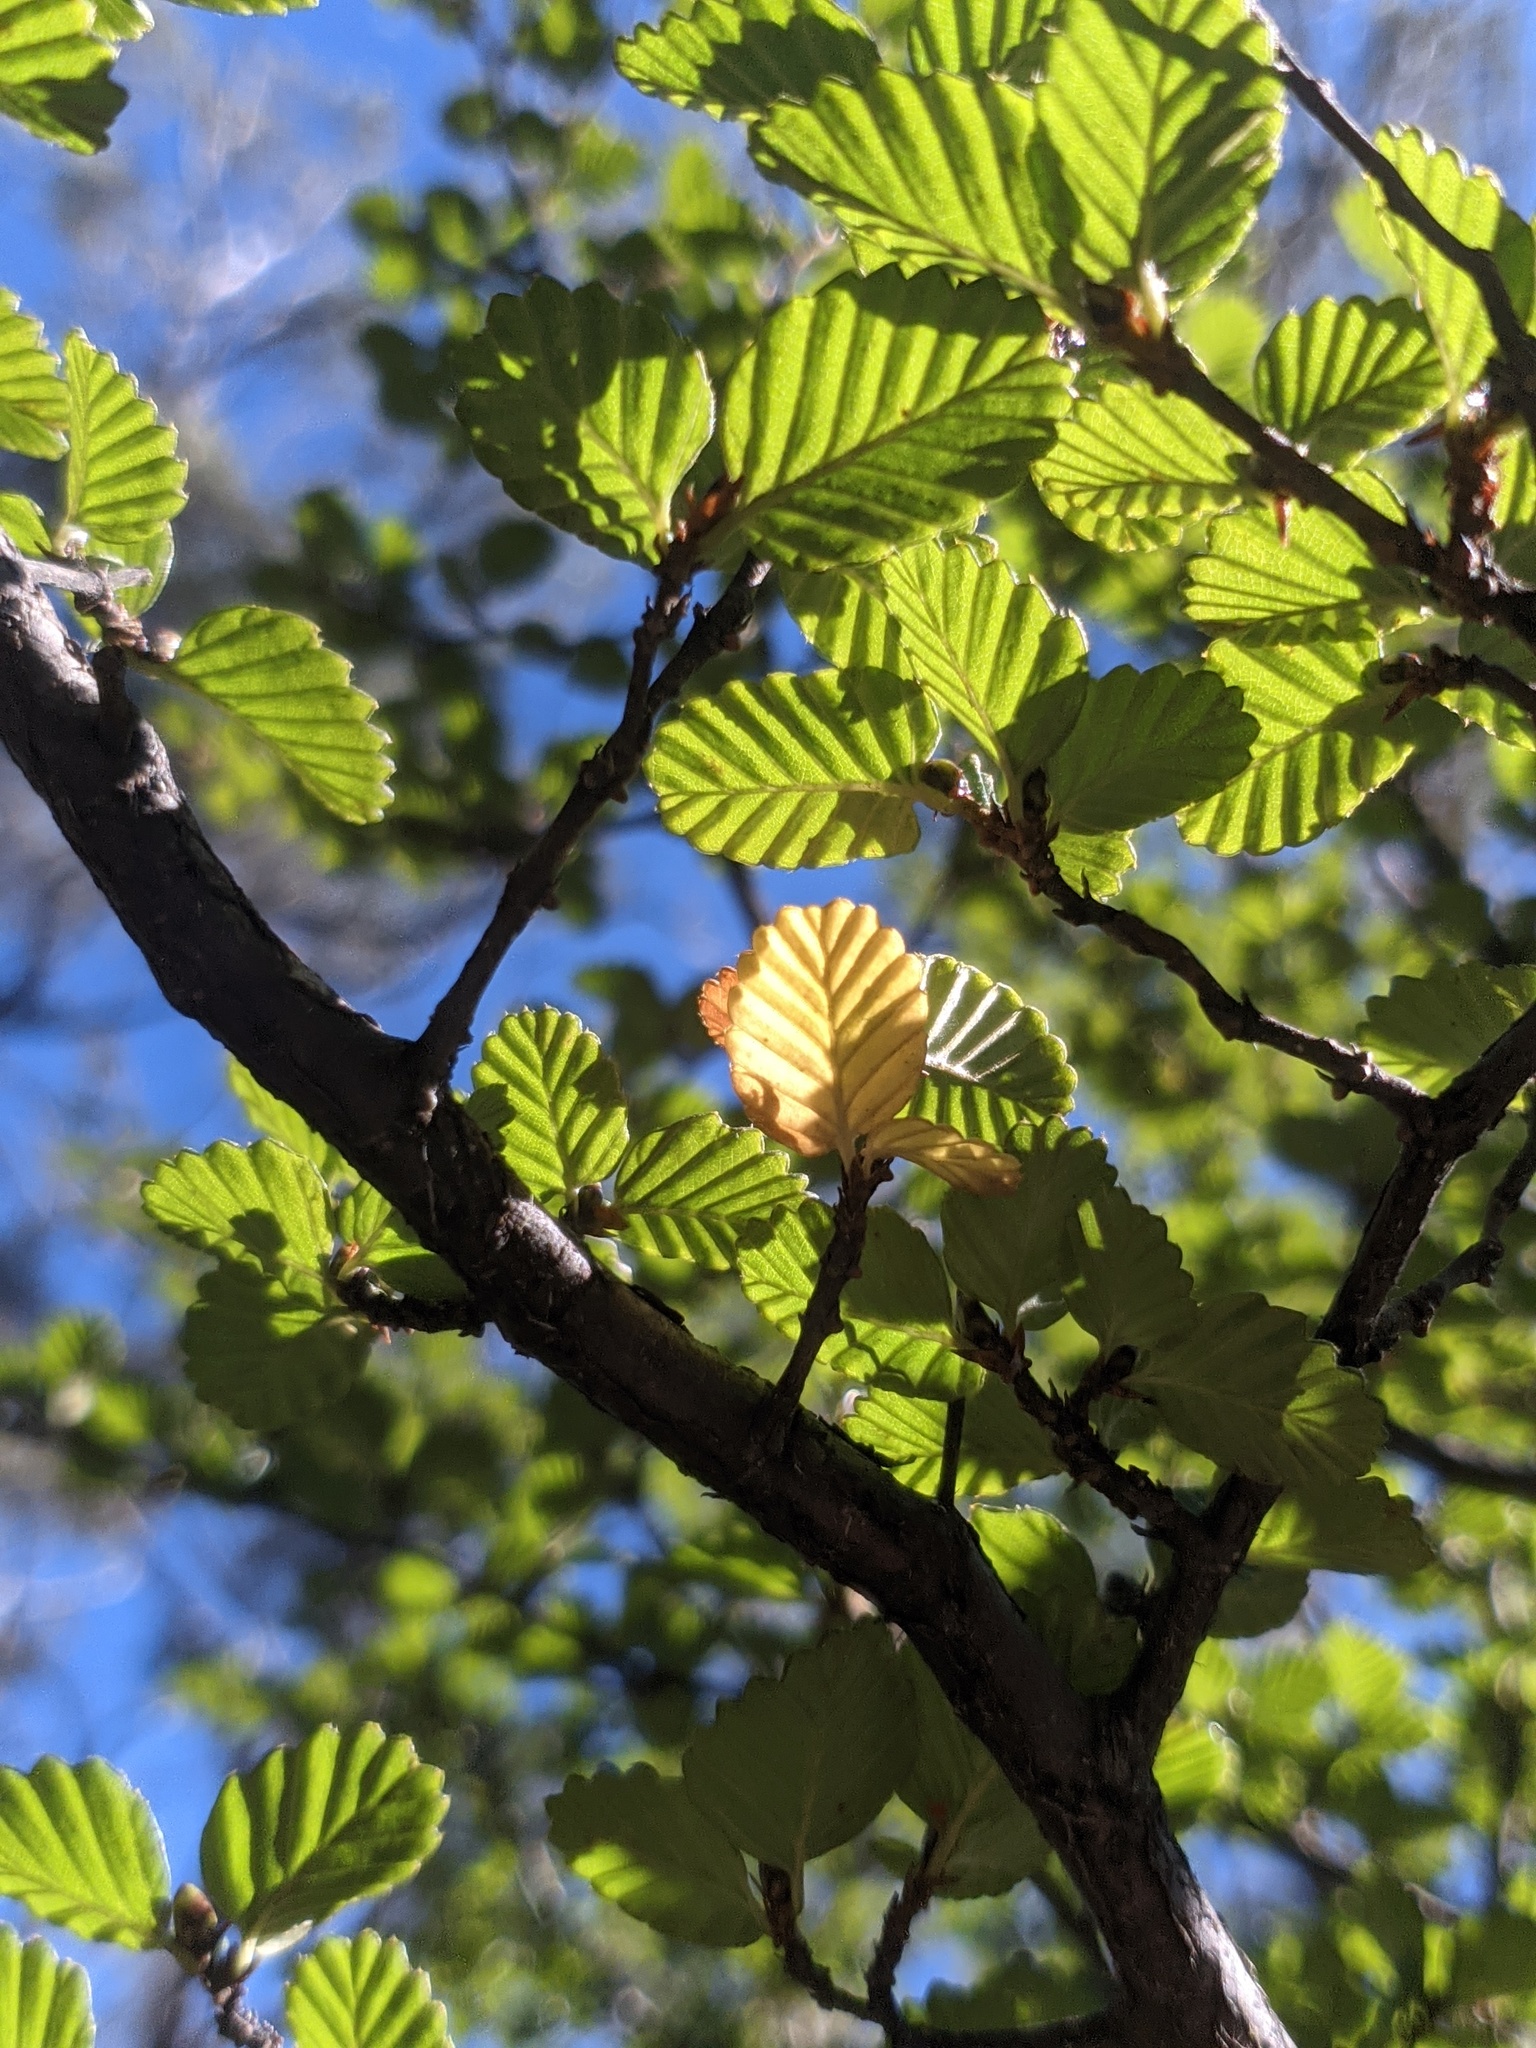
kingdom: Plantae
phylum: Tracheophyta
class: Magnoliopsida
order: Fagales
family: Nothofagaceae
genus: Nothofagus
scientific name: Nothofagus gunnii
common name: Tanglefoot
